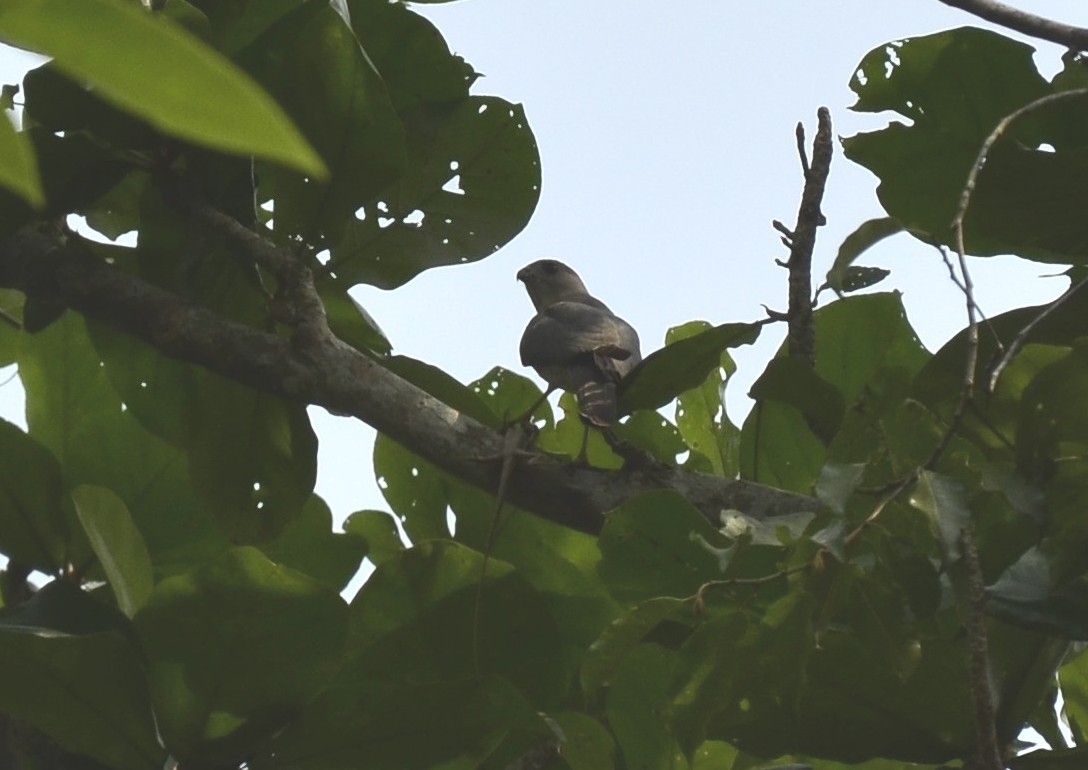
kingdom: Animalia
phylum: Chordata
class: Aves
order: Accipitriformes
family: Accipitridae
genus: Accipiter
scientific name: Accipiter badius
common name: Shikra
